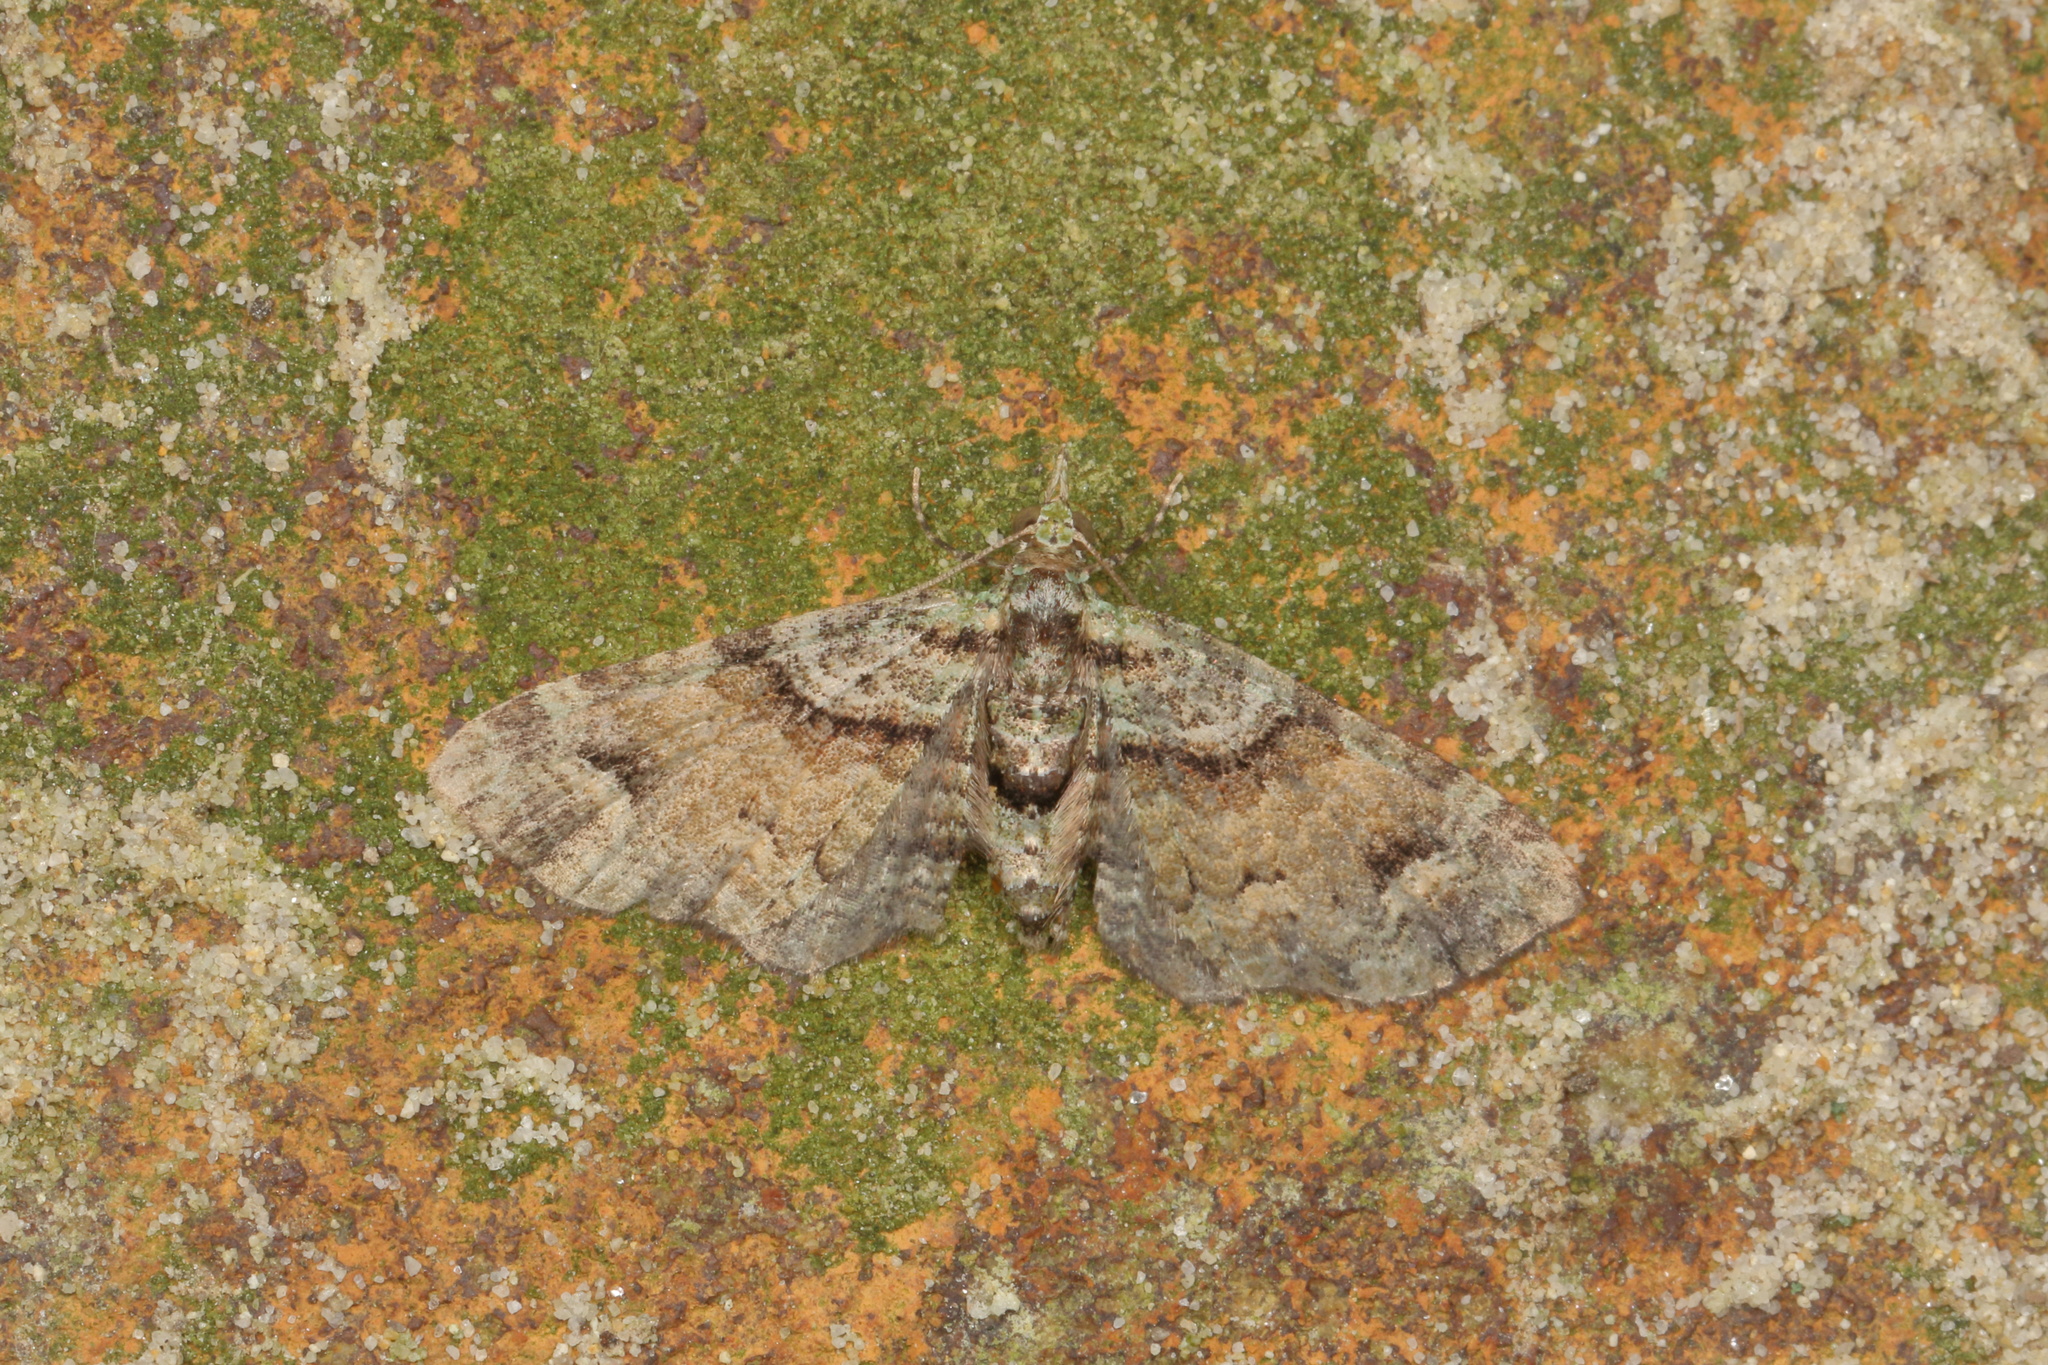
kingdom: Animalia
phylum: Arthropoda
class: Insecta
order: Lepidoptera
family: Geometridae
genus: Idaea
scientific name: Idaea mutanda
